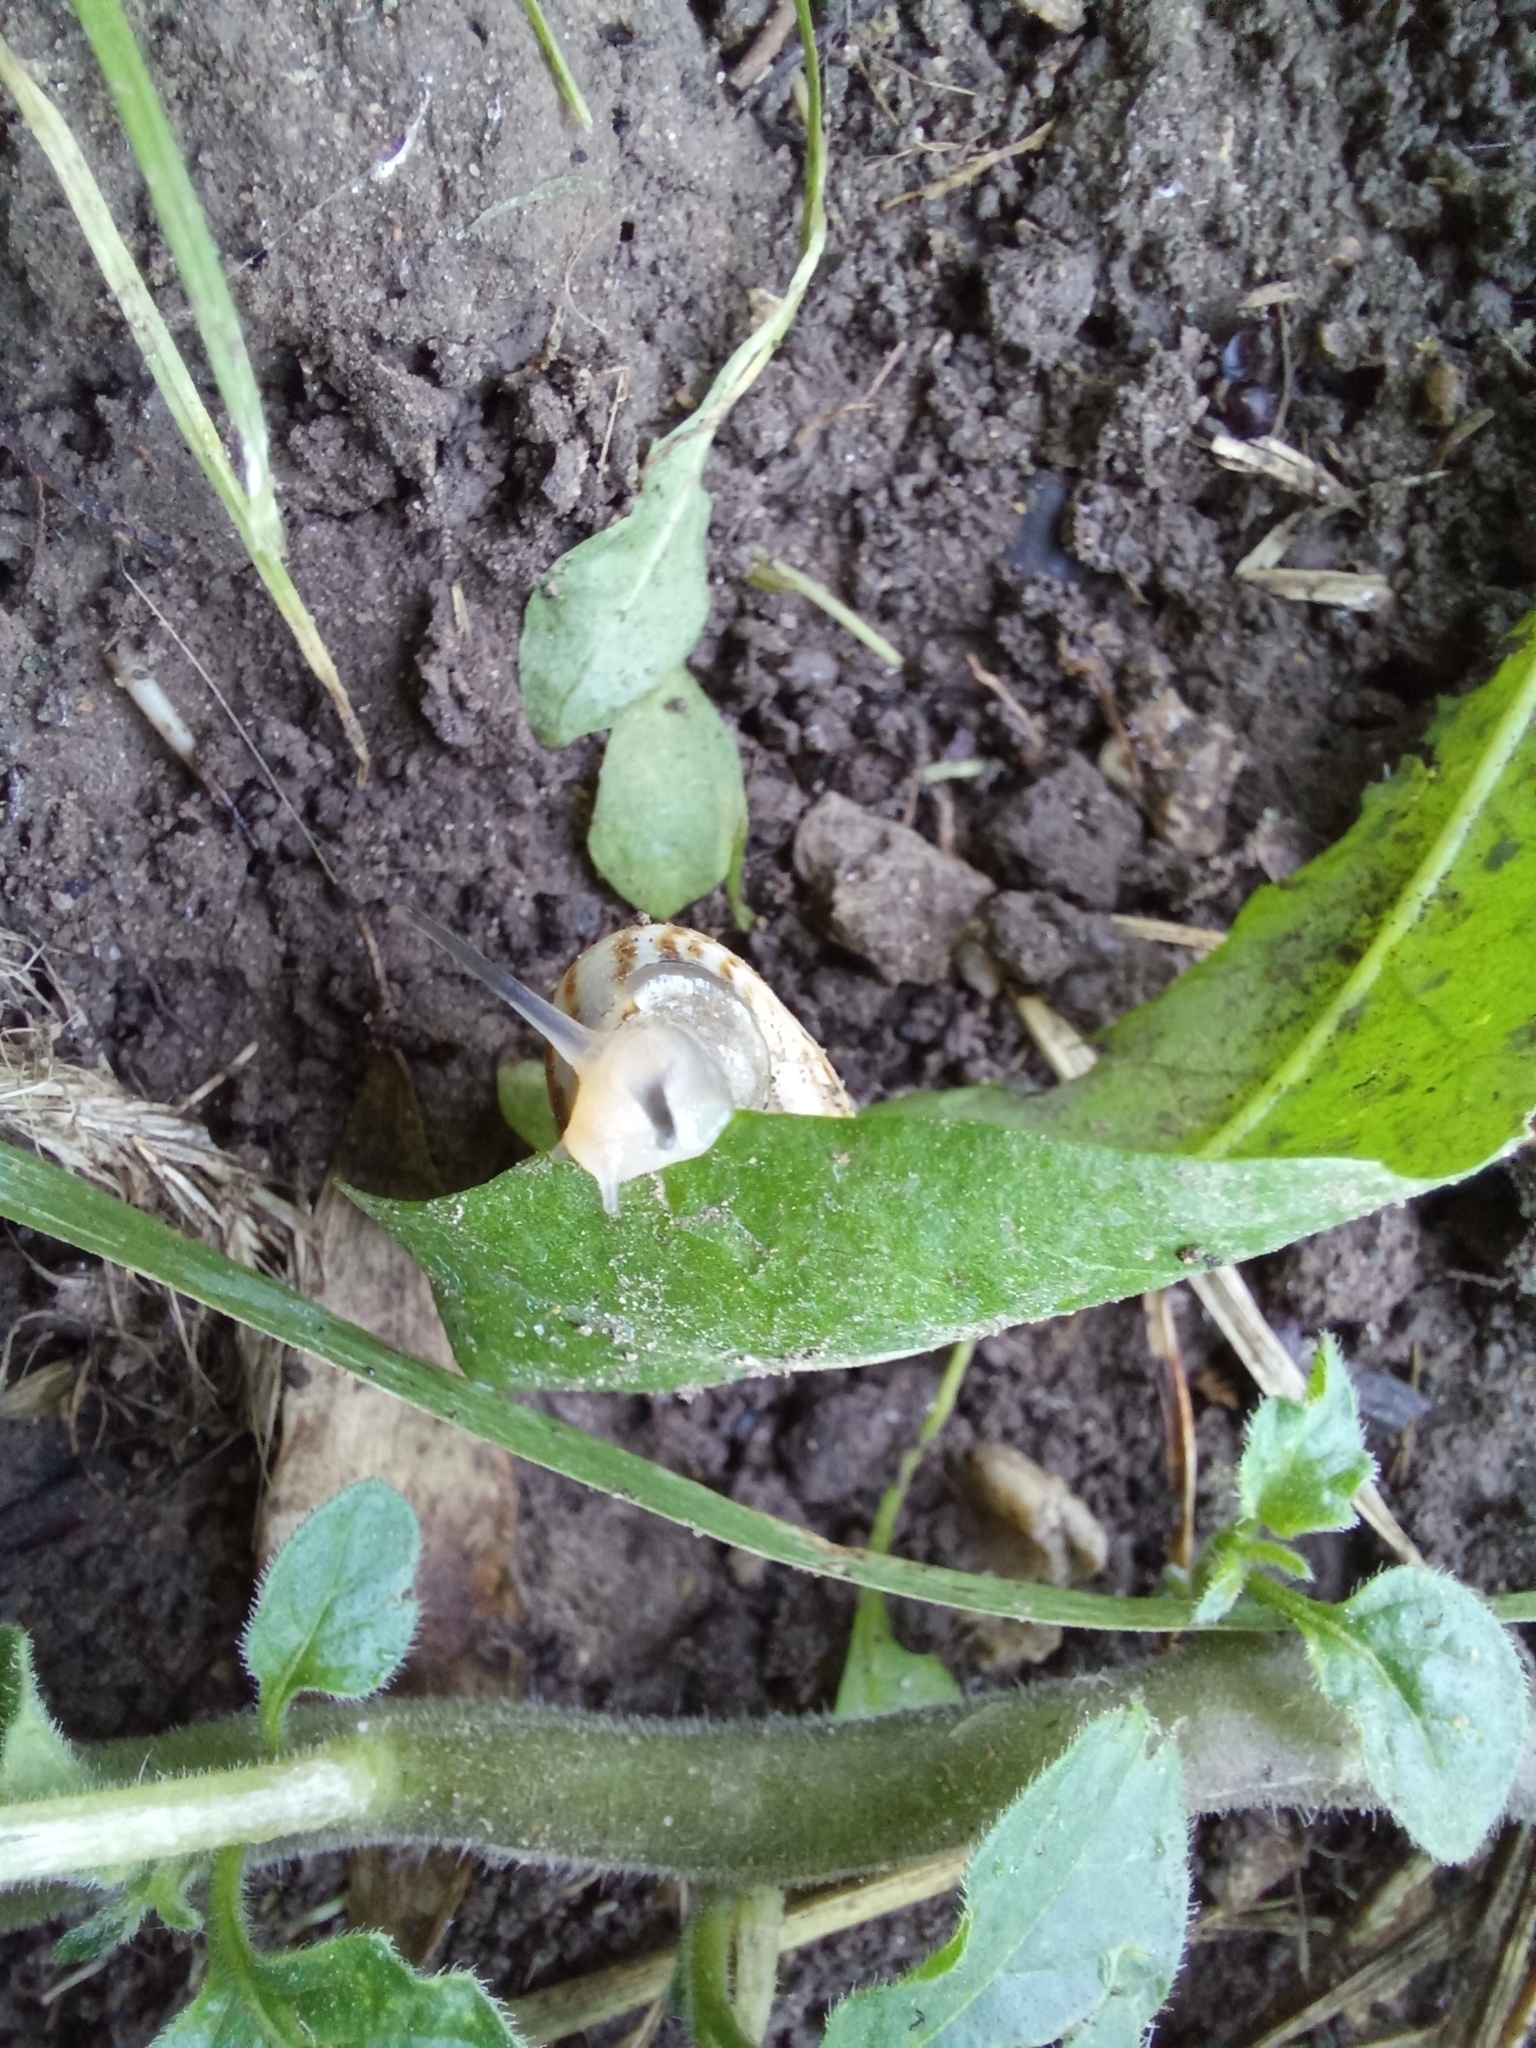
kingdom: Animalia
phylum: Mollusca
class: Gastropoda
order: Stylommatophora
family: Geomitridae
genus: Xeropicta
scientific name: Xeropicta derbentina
